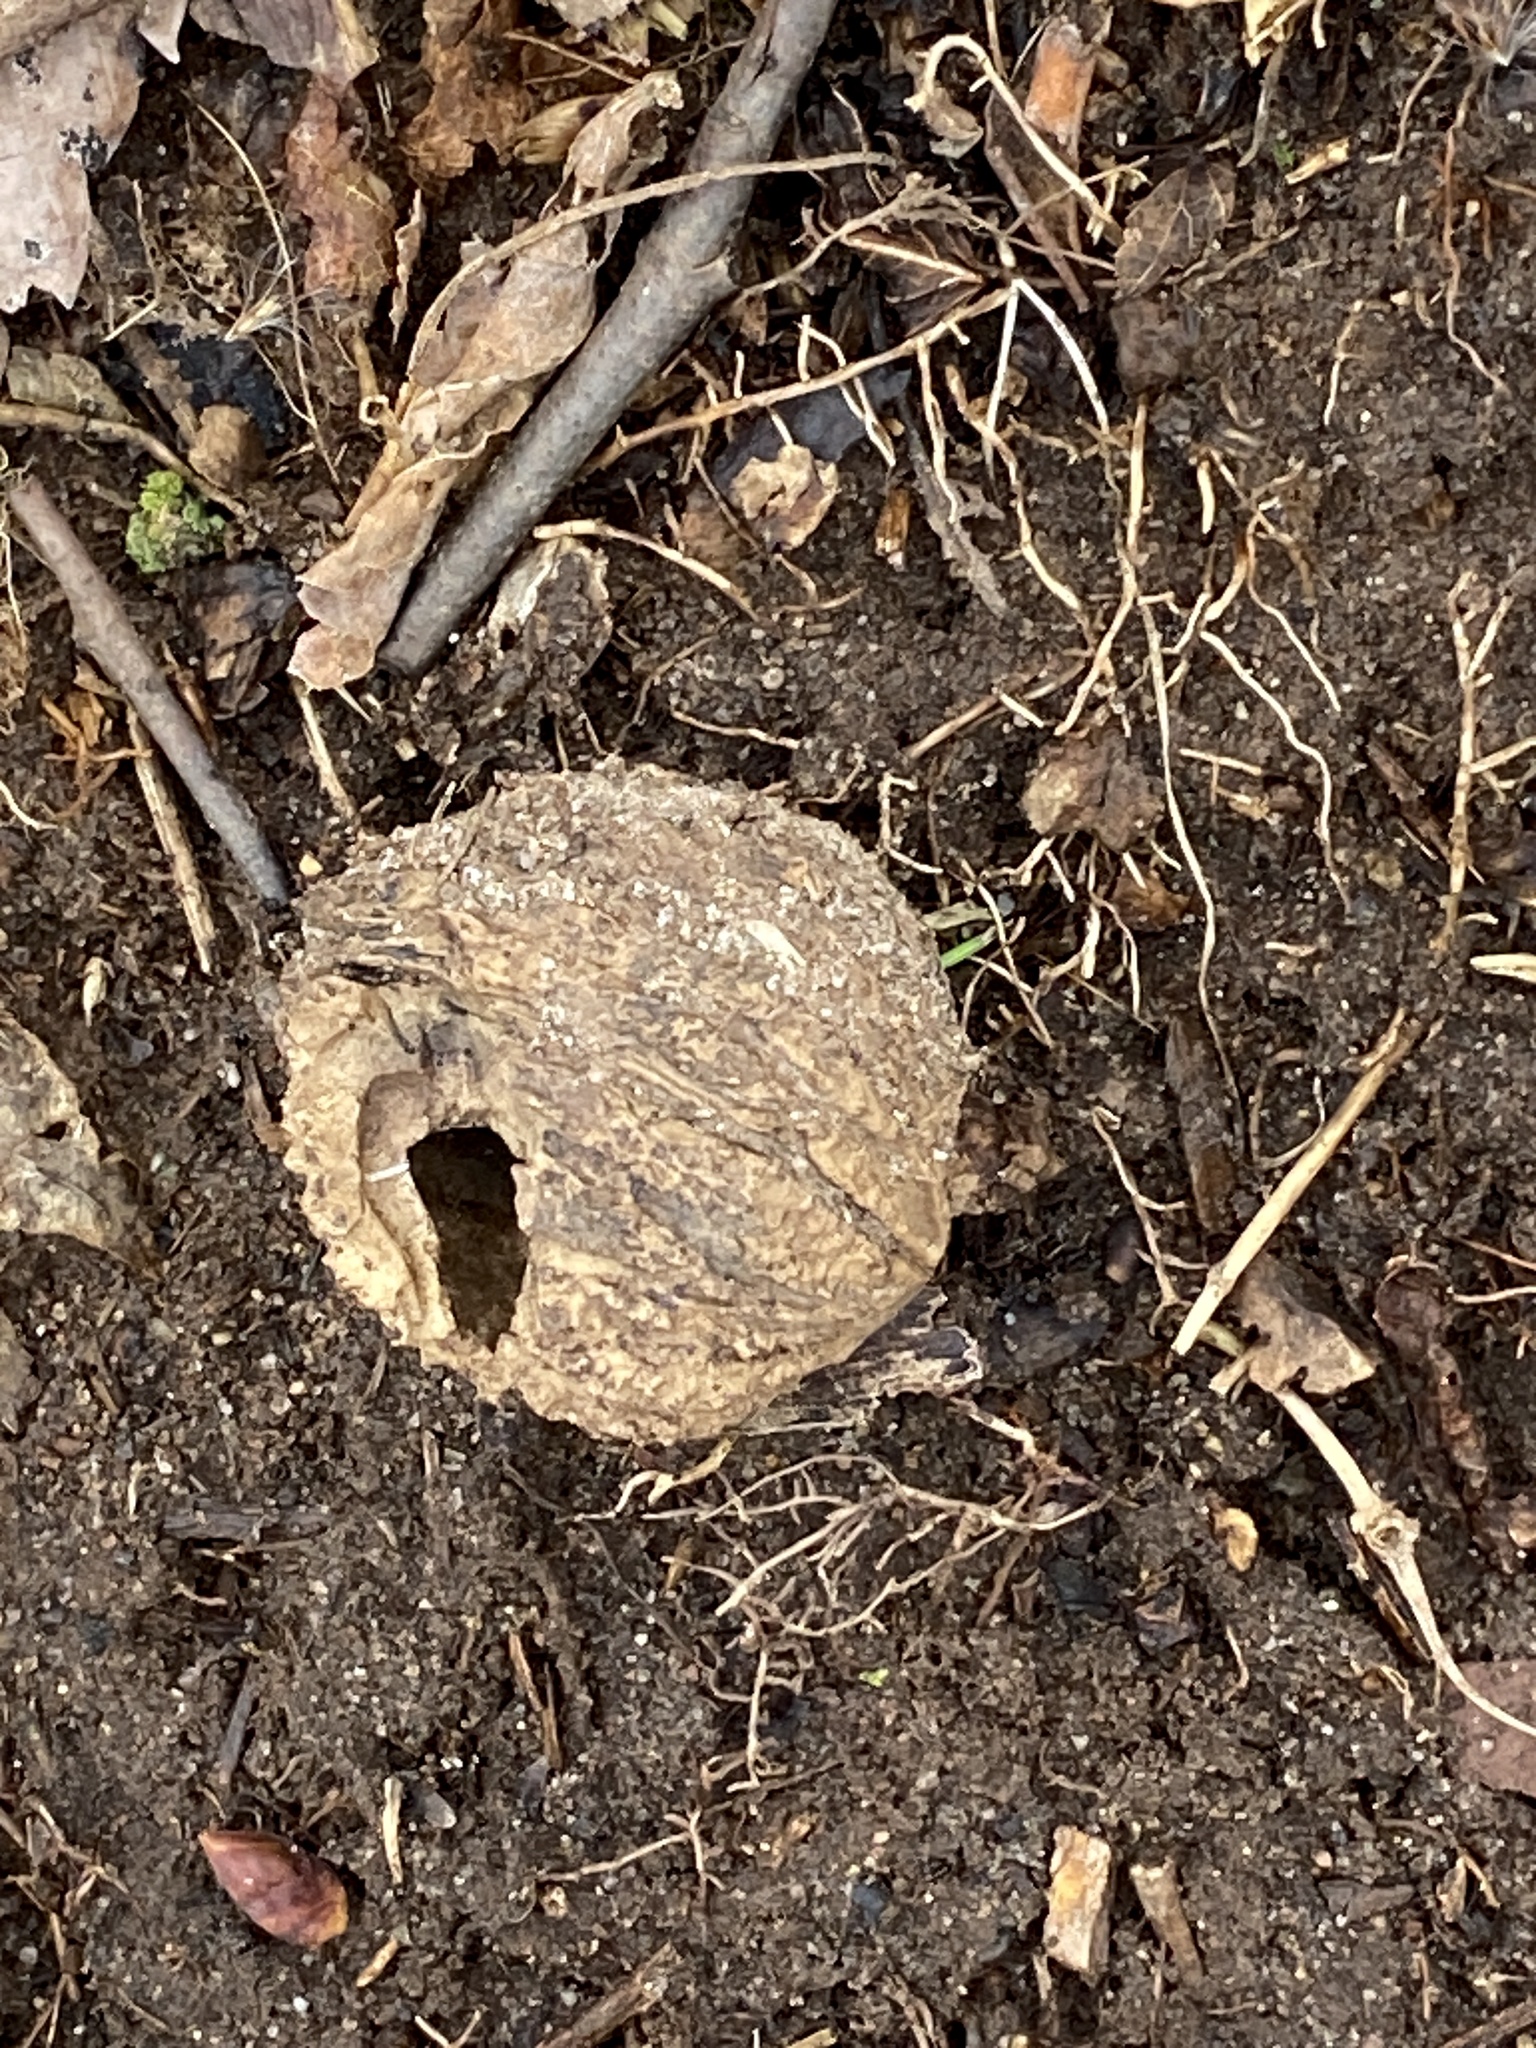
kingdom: Plantae
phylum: Tracheophyta
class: Magnoliopsida
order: Fagales
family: Juglandaceae
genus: Juglans
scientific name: Juglans nigra
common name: Black walnut
